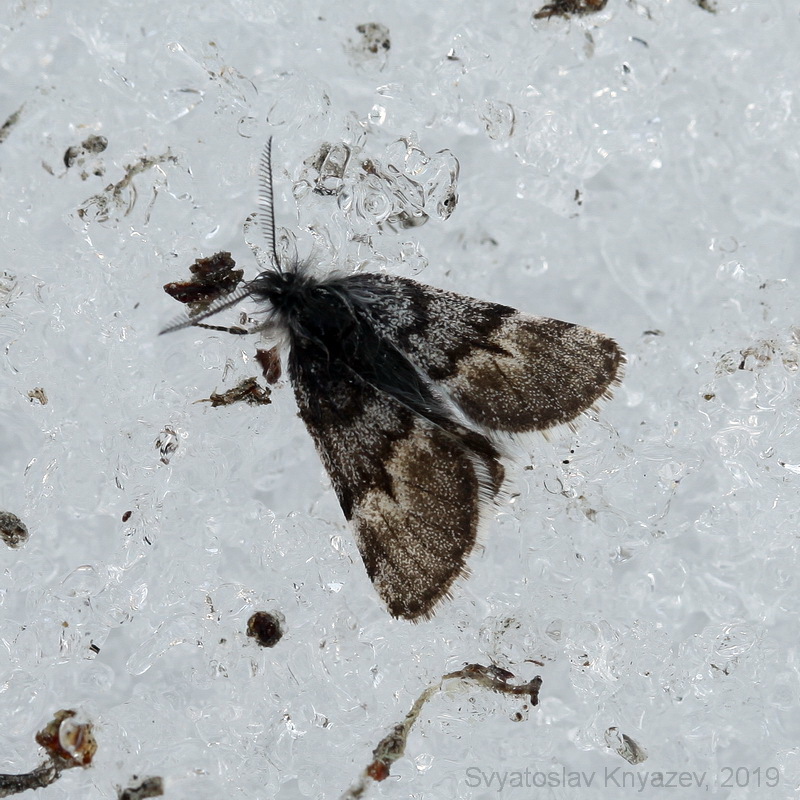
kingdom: Animalia
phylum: Arthropoda
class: Insecta
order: Lepidoptera
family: Geometridae
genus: Leucobrephos
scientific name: Leucobrephos middendorfii
